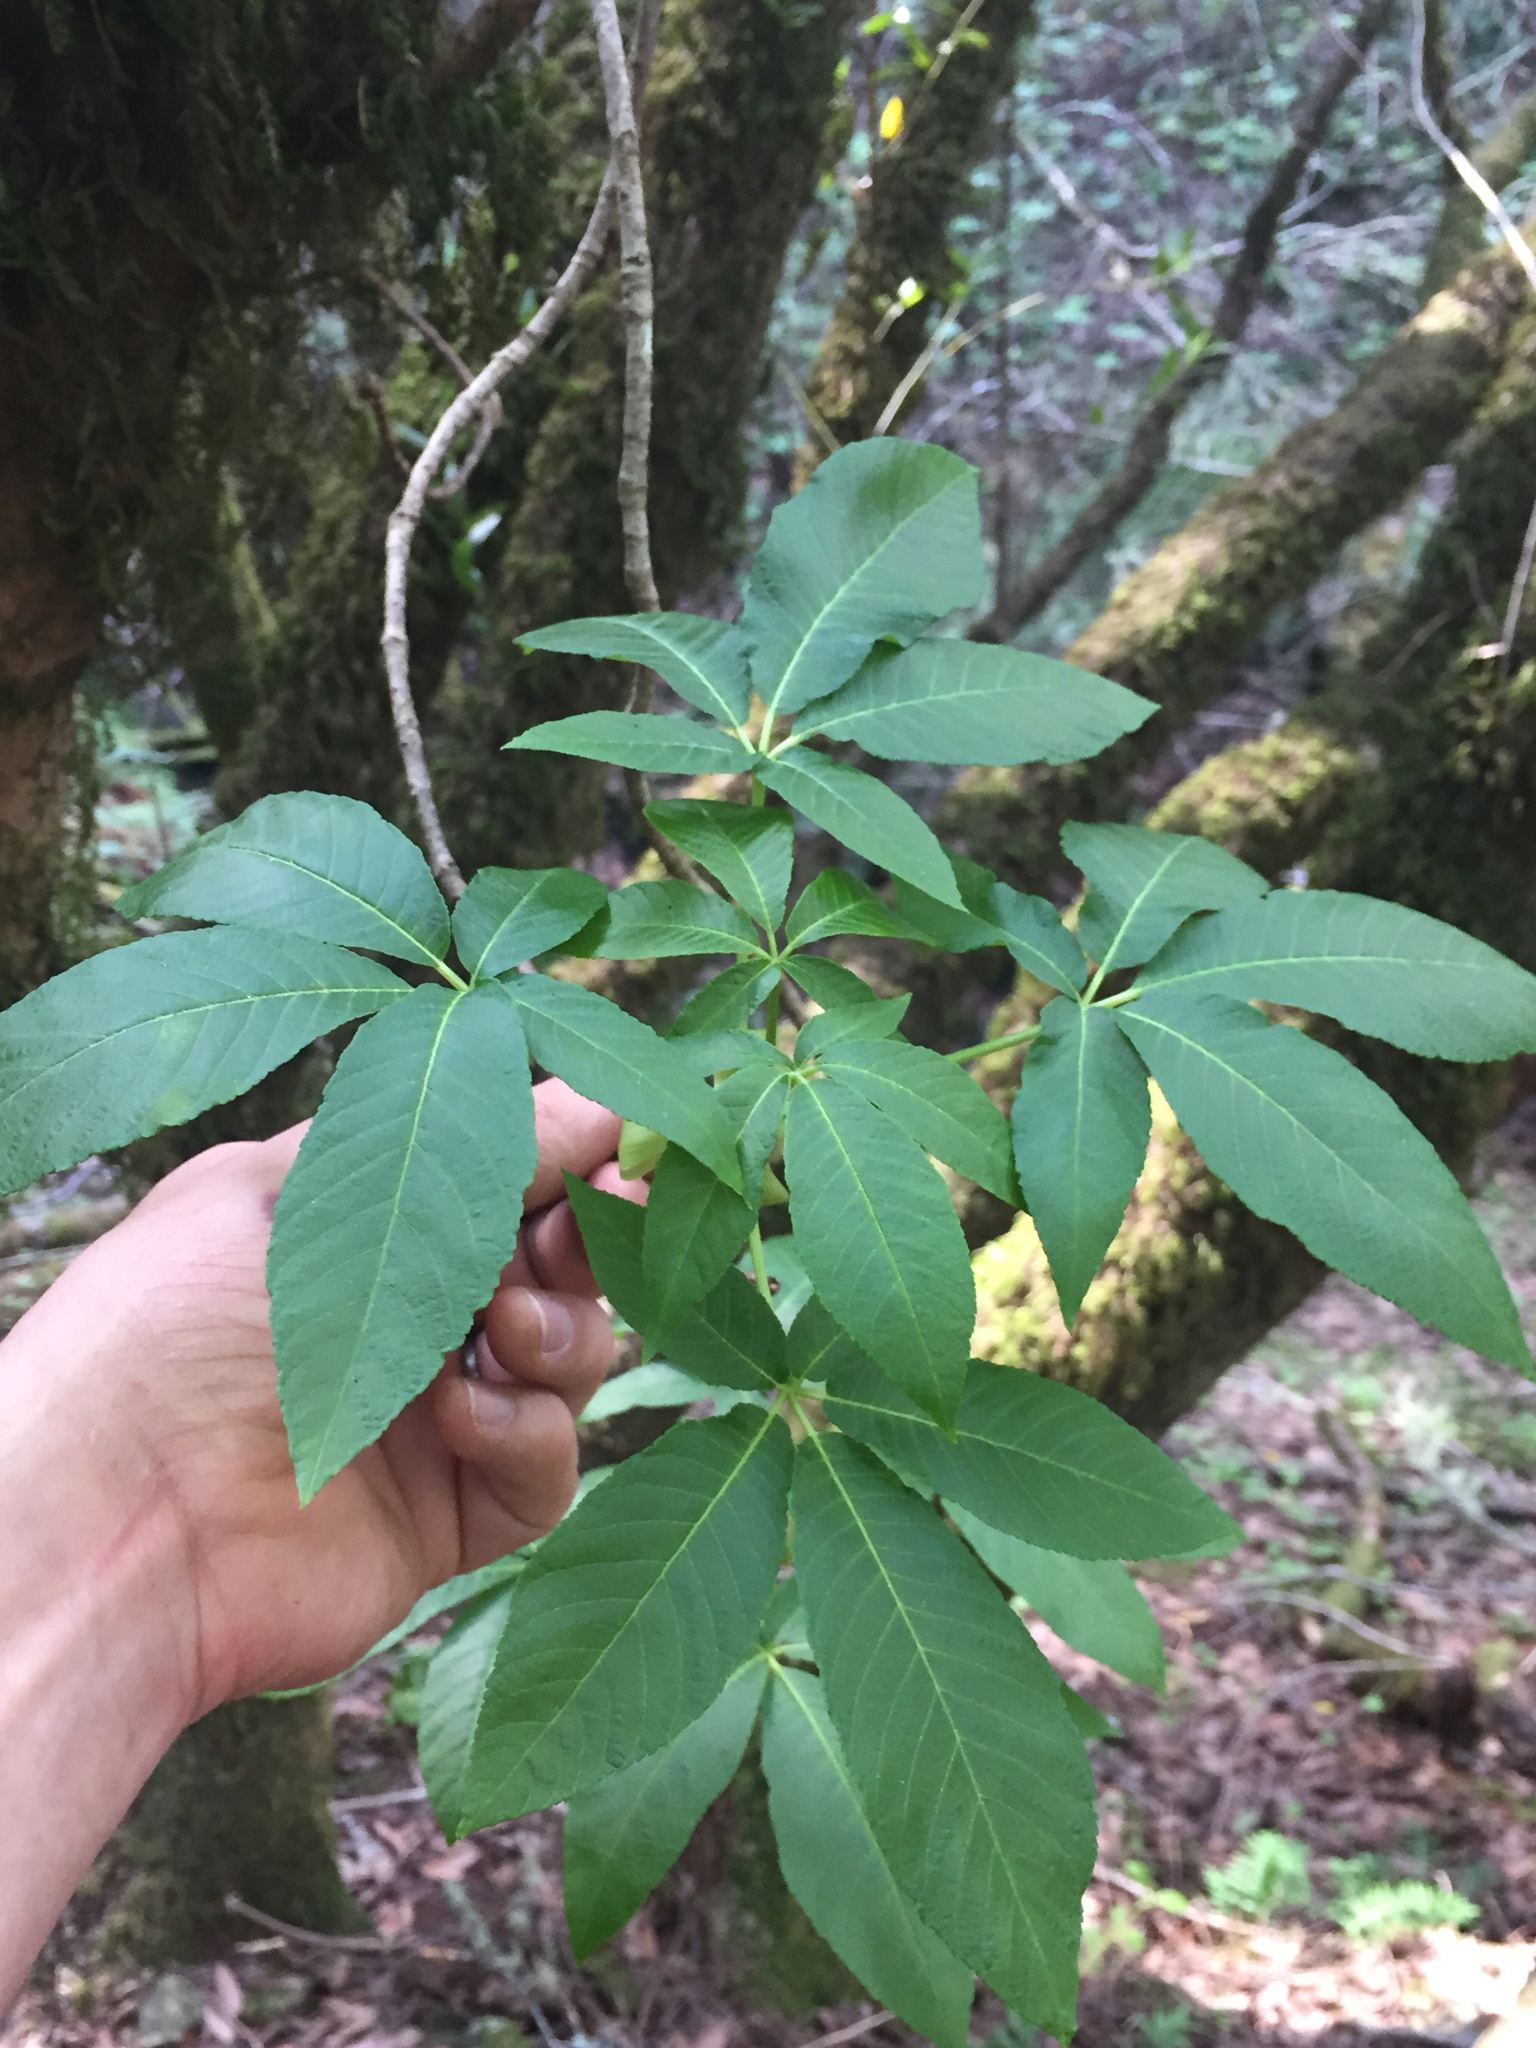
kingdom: Plantae
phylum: Tracheophyta
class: Magnoliopsida
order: Sapindales
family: Sapindaceae
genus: Aesculus
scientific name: Aesculus californica
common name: California buckeye
